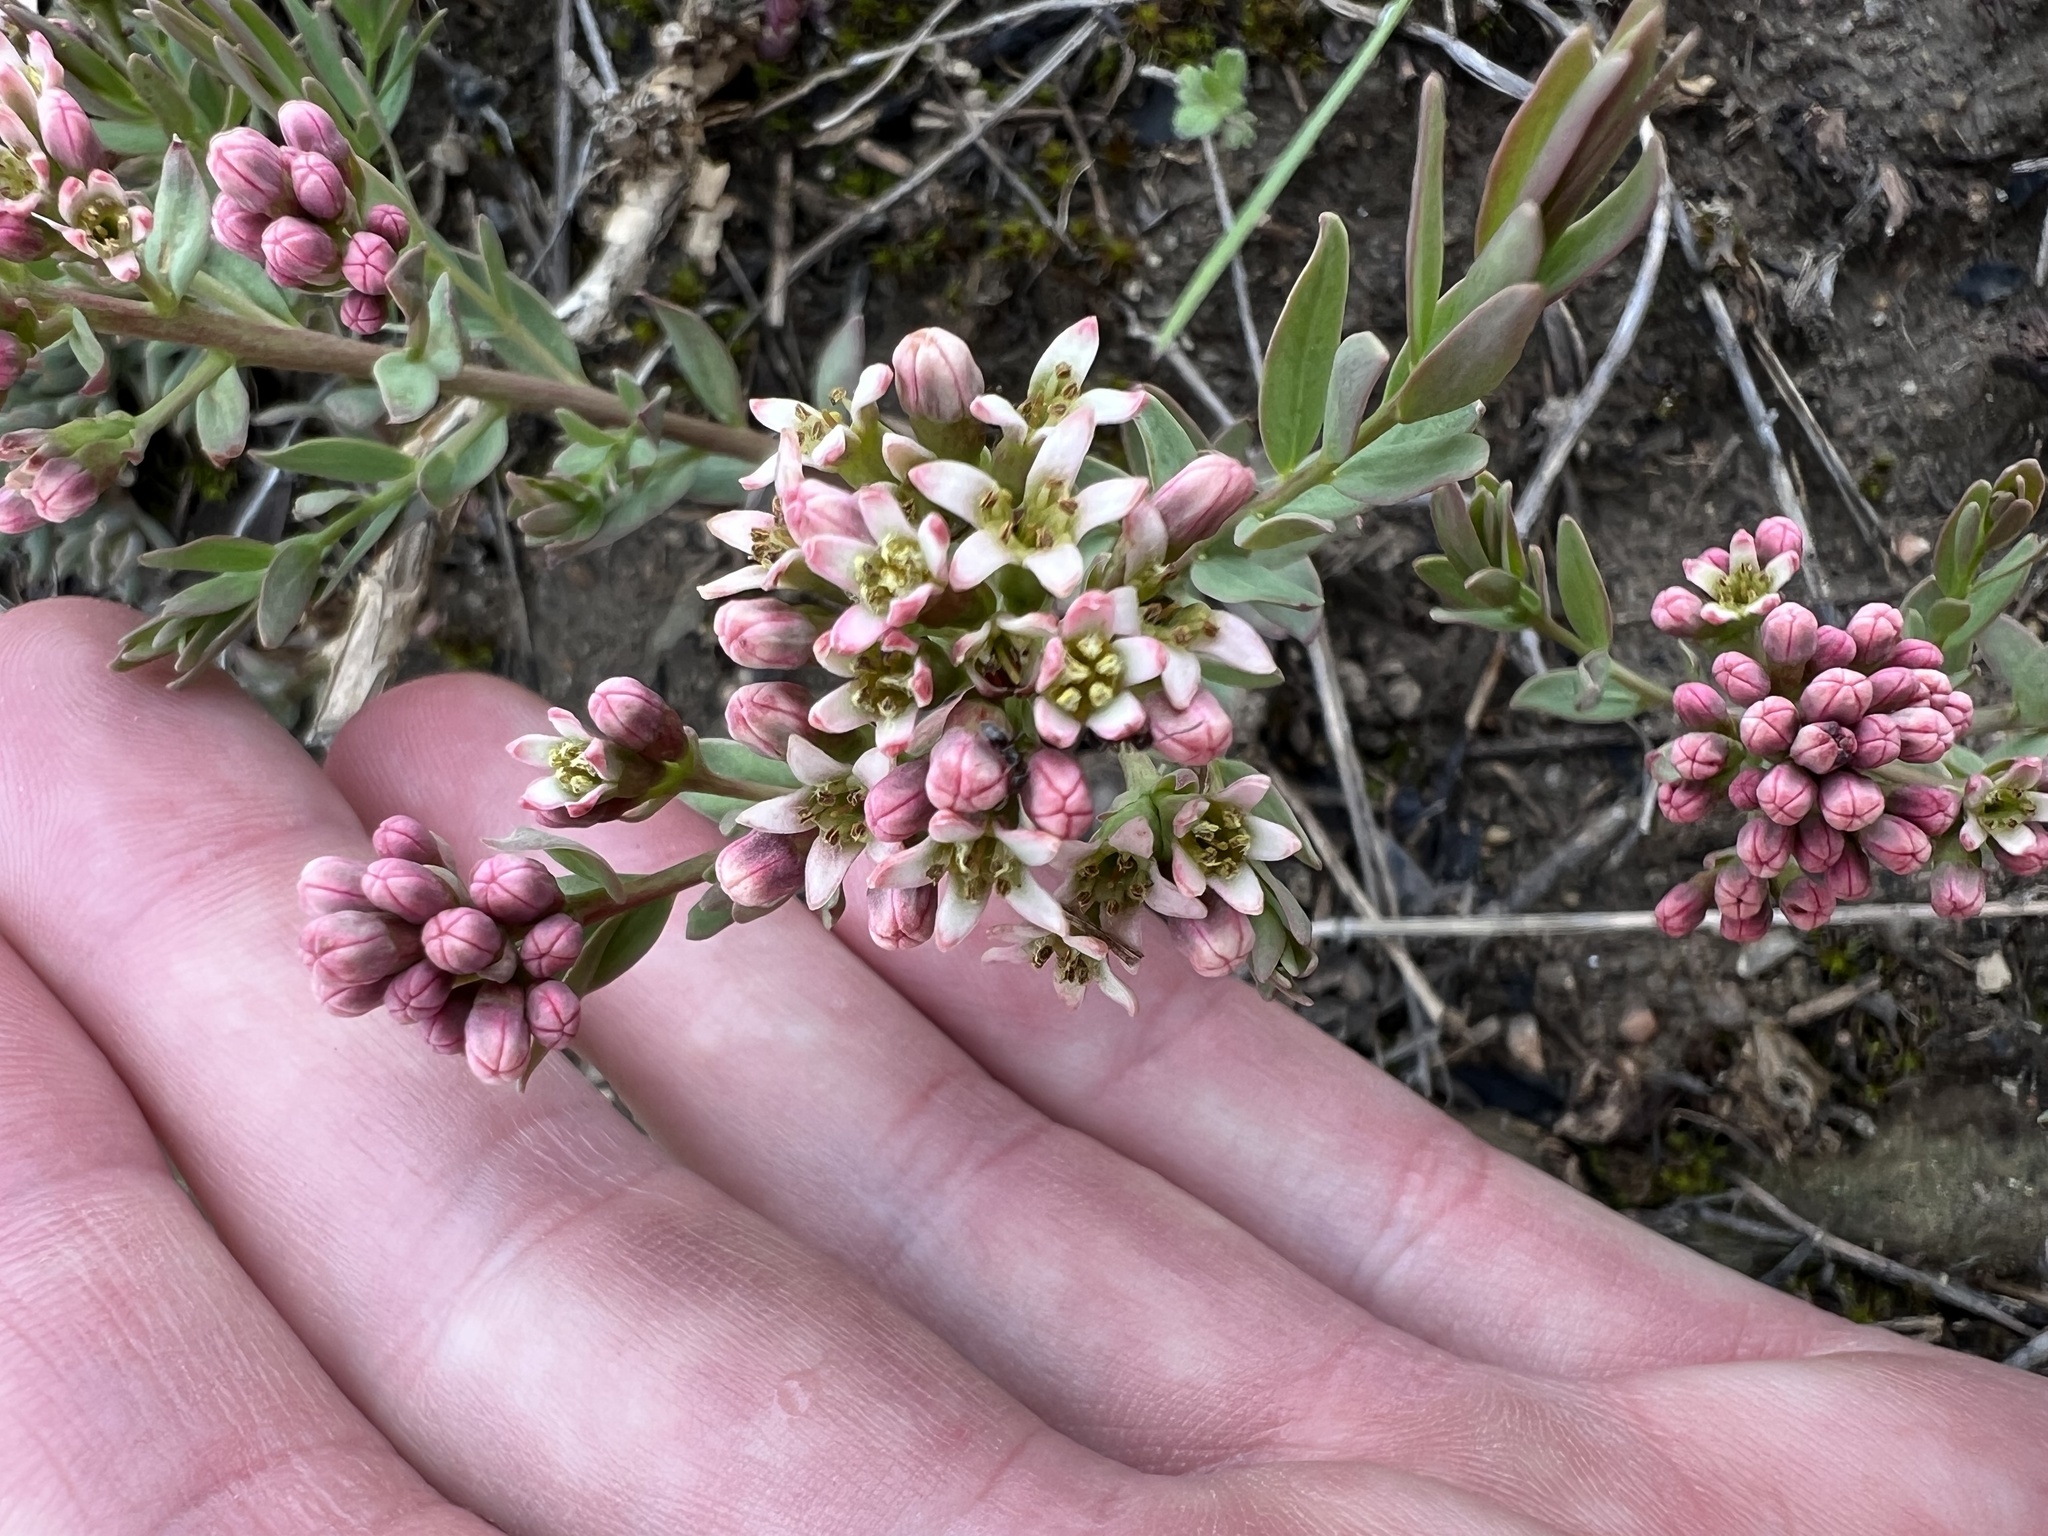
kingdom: Plantae
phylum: Tracheophyta
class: Magnoliopsida
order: Santalales
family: Comandraceae
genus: Comandra
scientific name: Comandra umbellata
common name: Bastard toadflax
